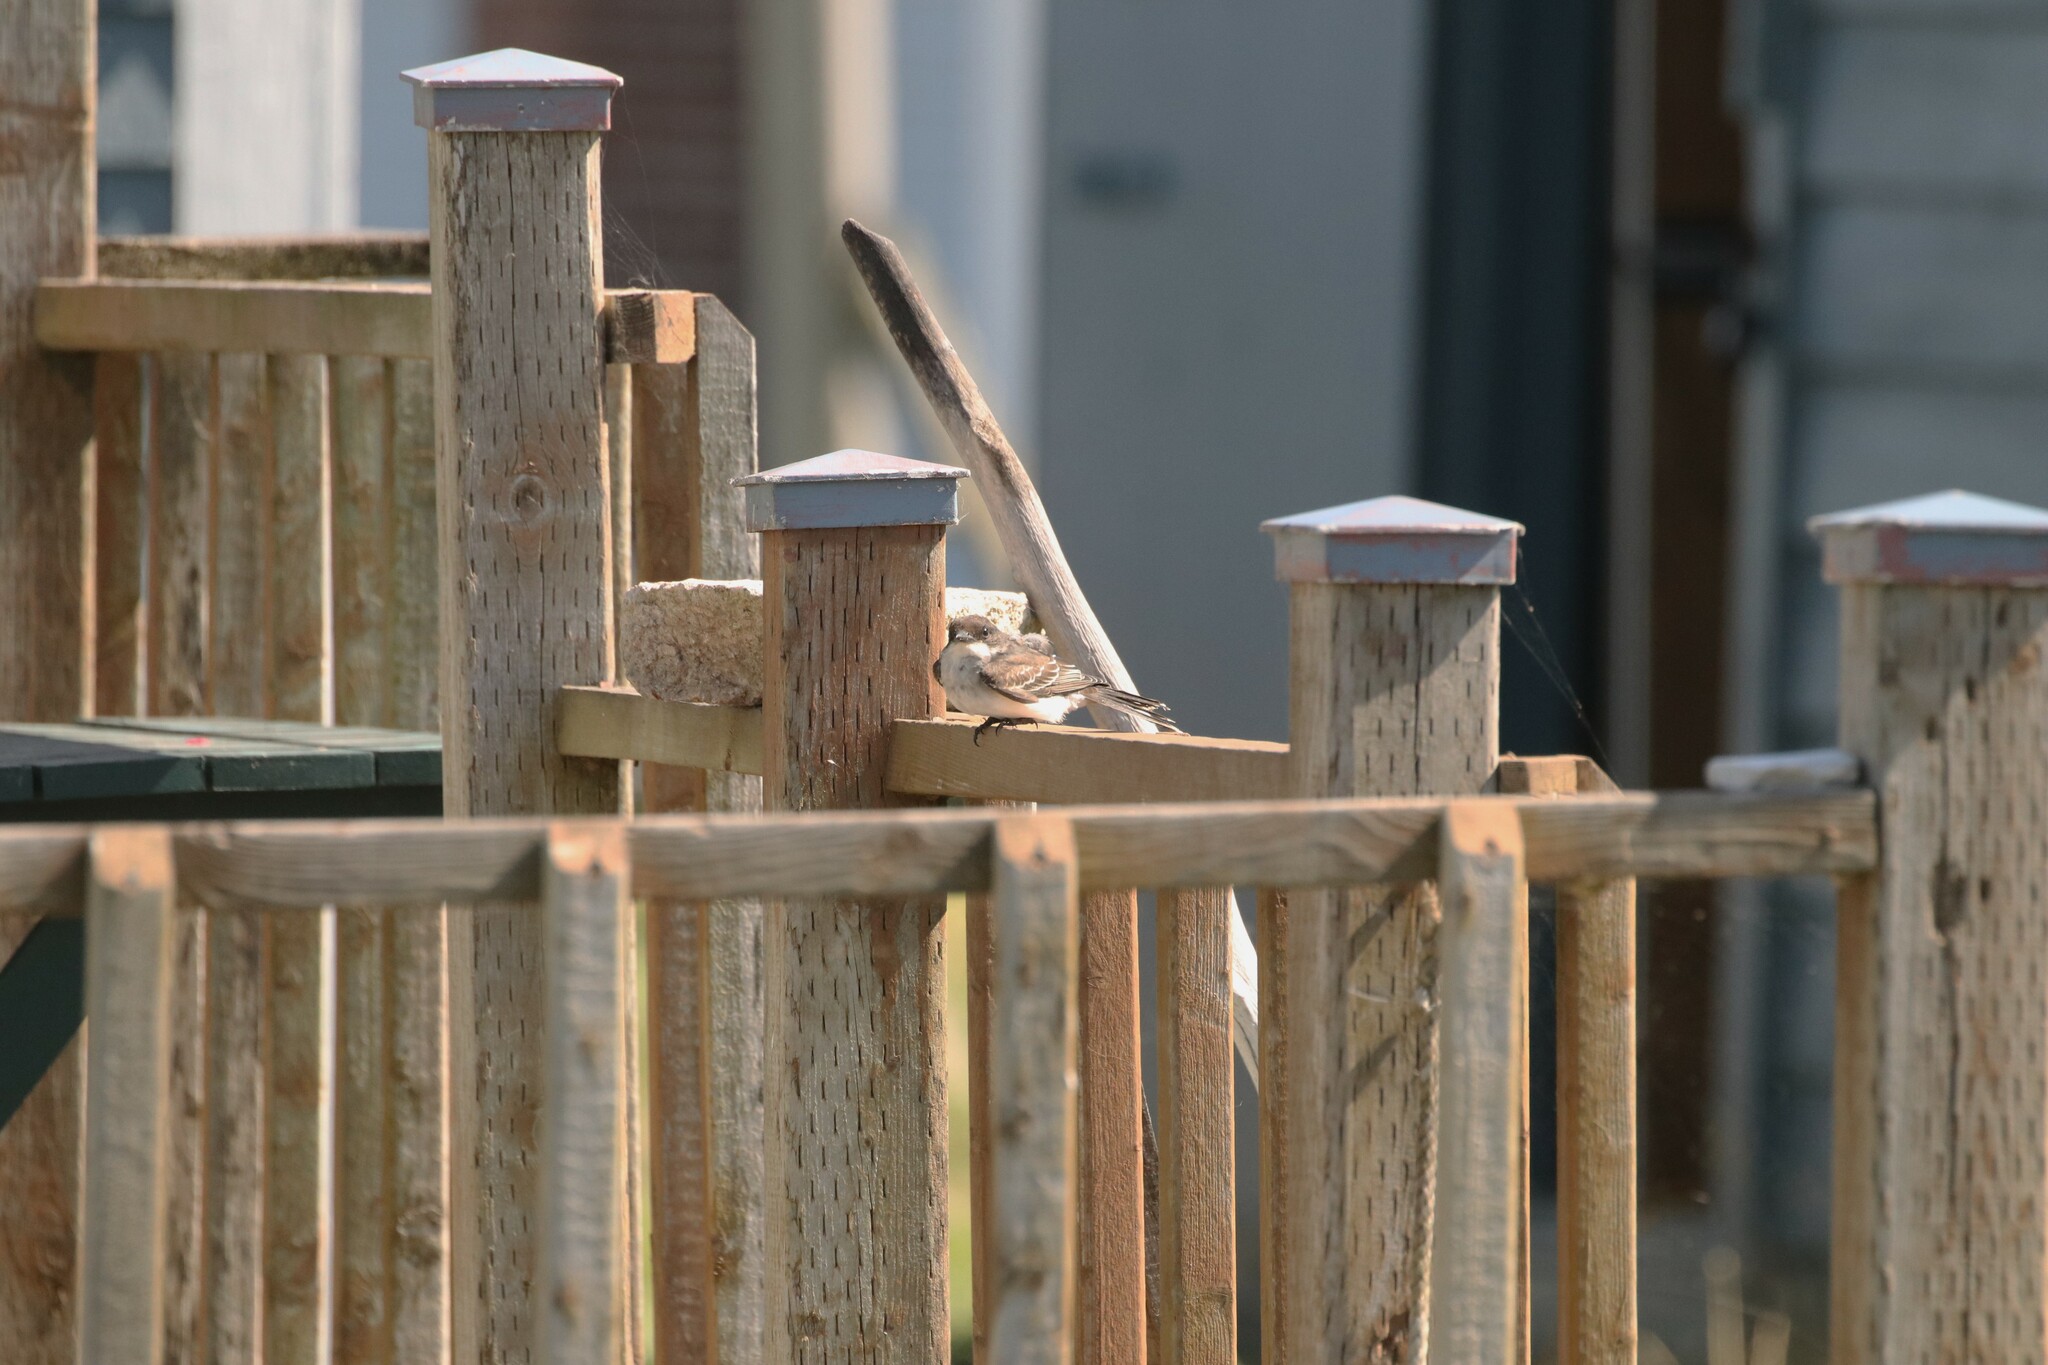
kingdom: Animalia
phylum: Chordata
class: Aves
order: Passeriformes
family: Tyrannidae
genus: Tyrannus
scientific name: Tyrannus tyrannus
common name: Eastern kingbird
